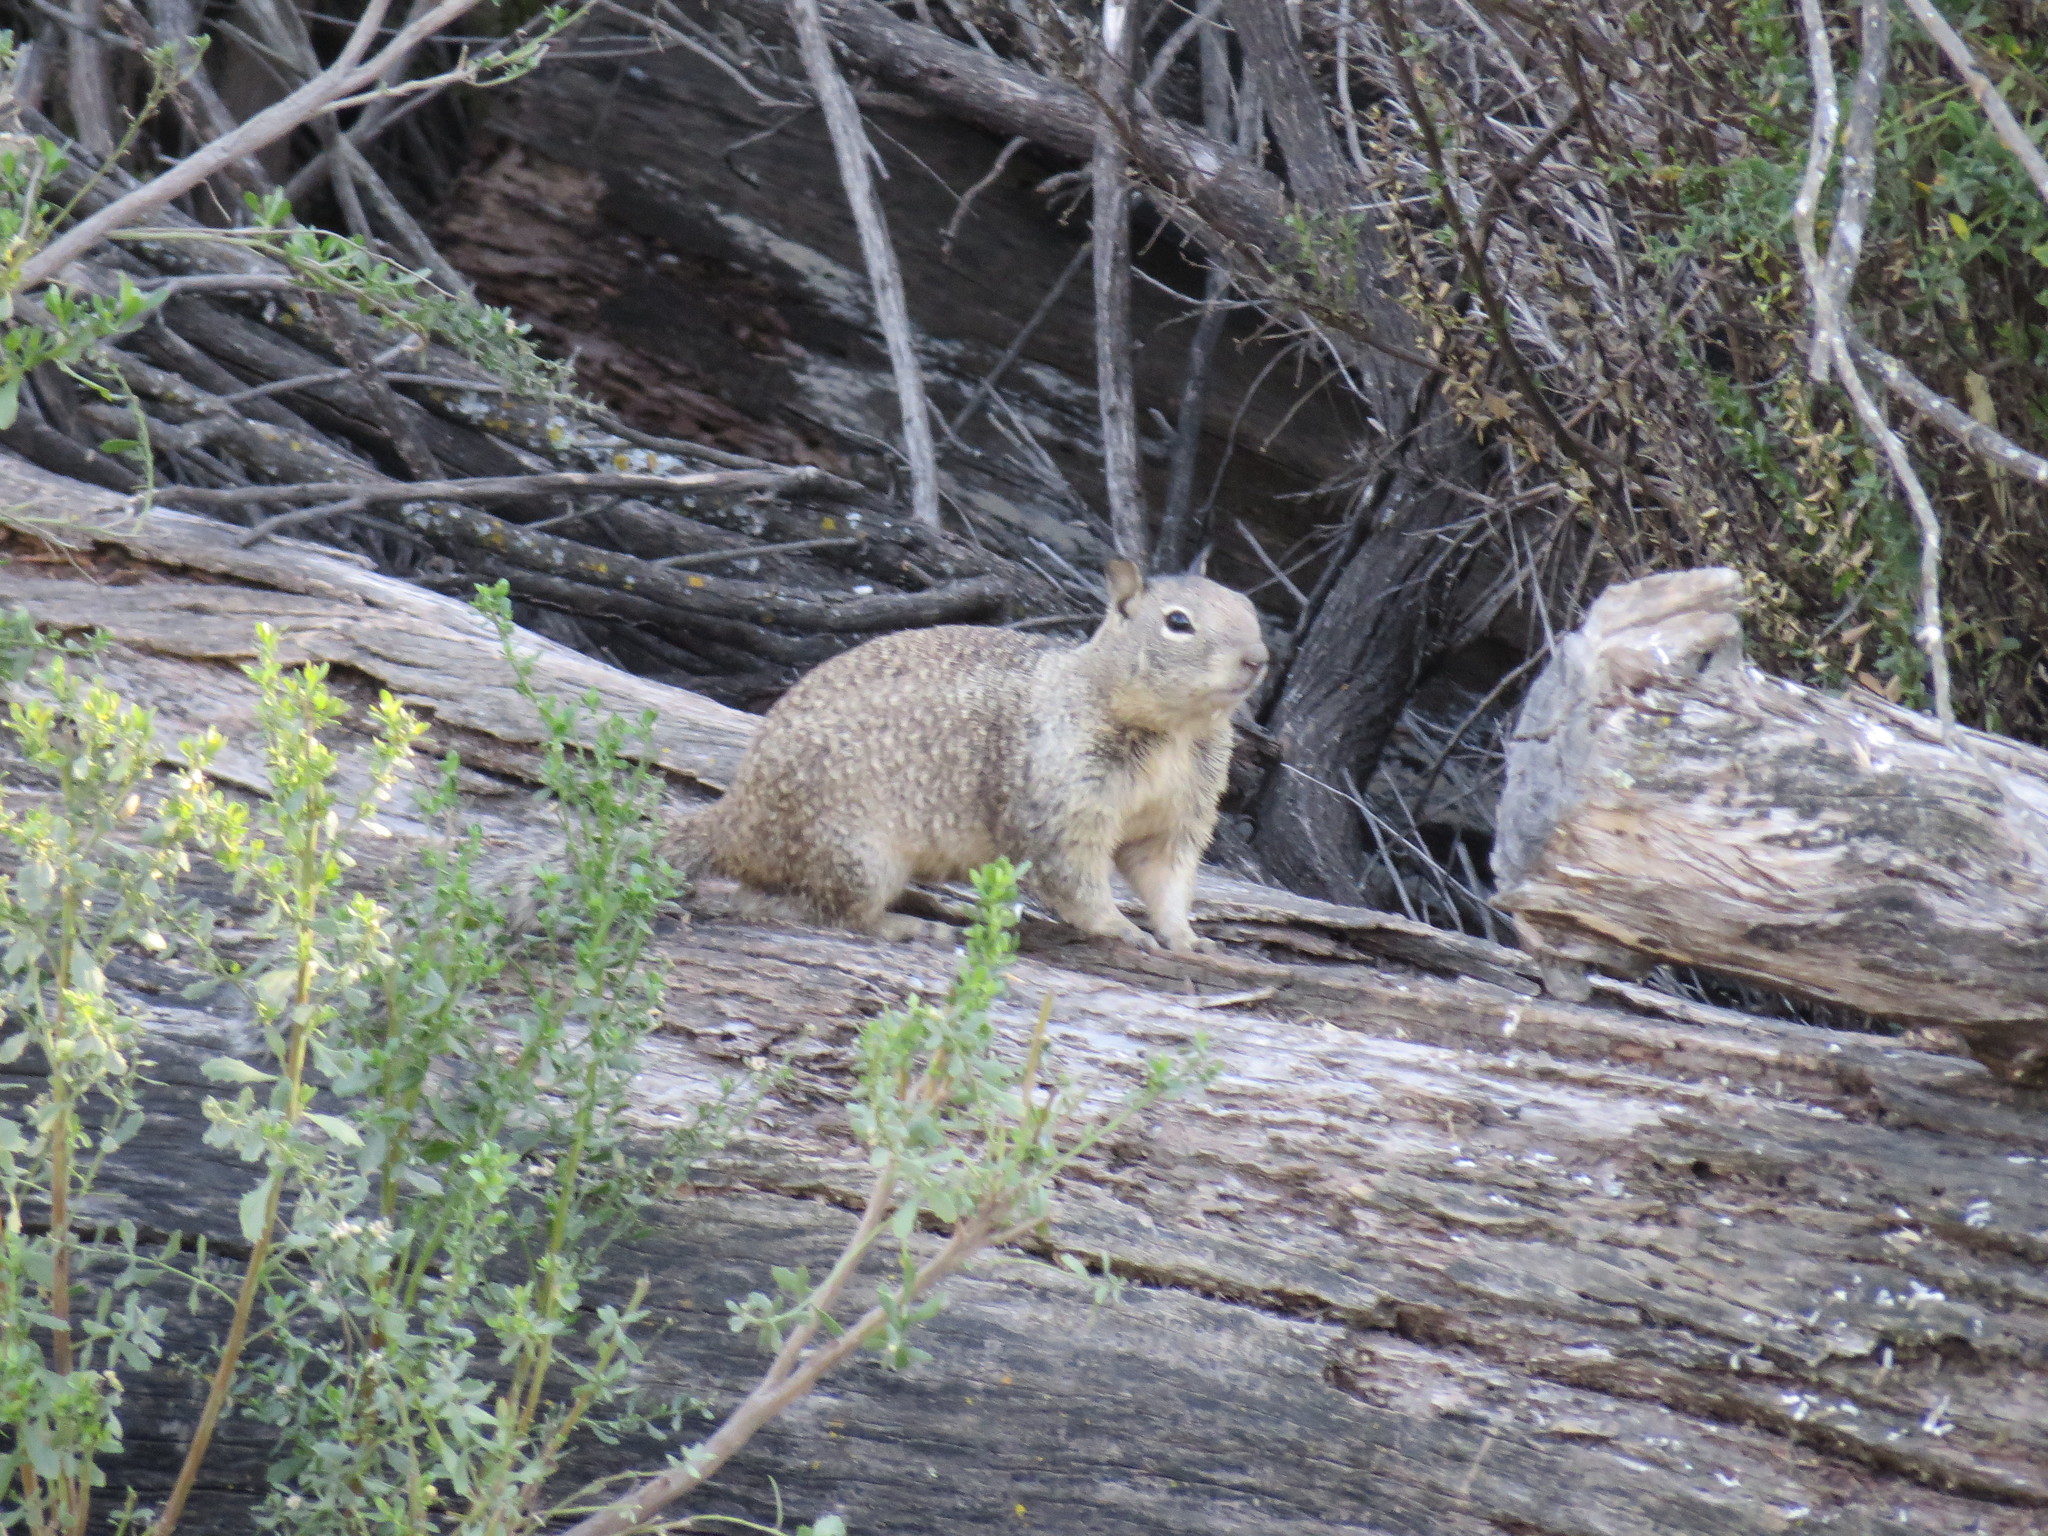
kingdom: Animalia
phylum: Chordata
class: Mammalia
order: Rodentia
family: Sciuridae
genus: Otospermophilus
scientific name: Otospermophilus beecheyi
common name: California ground squirrel
